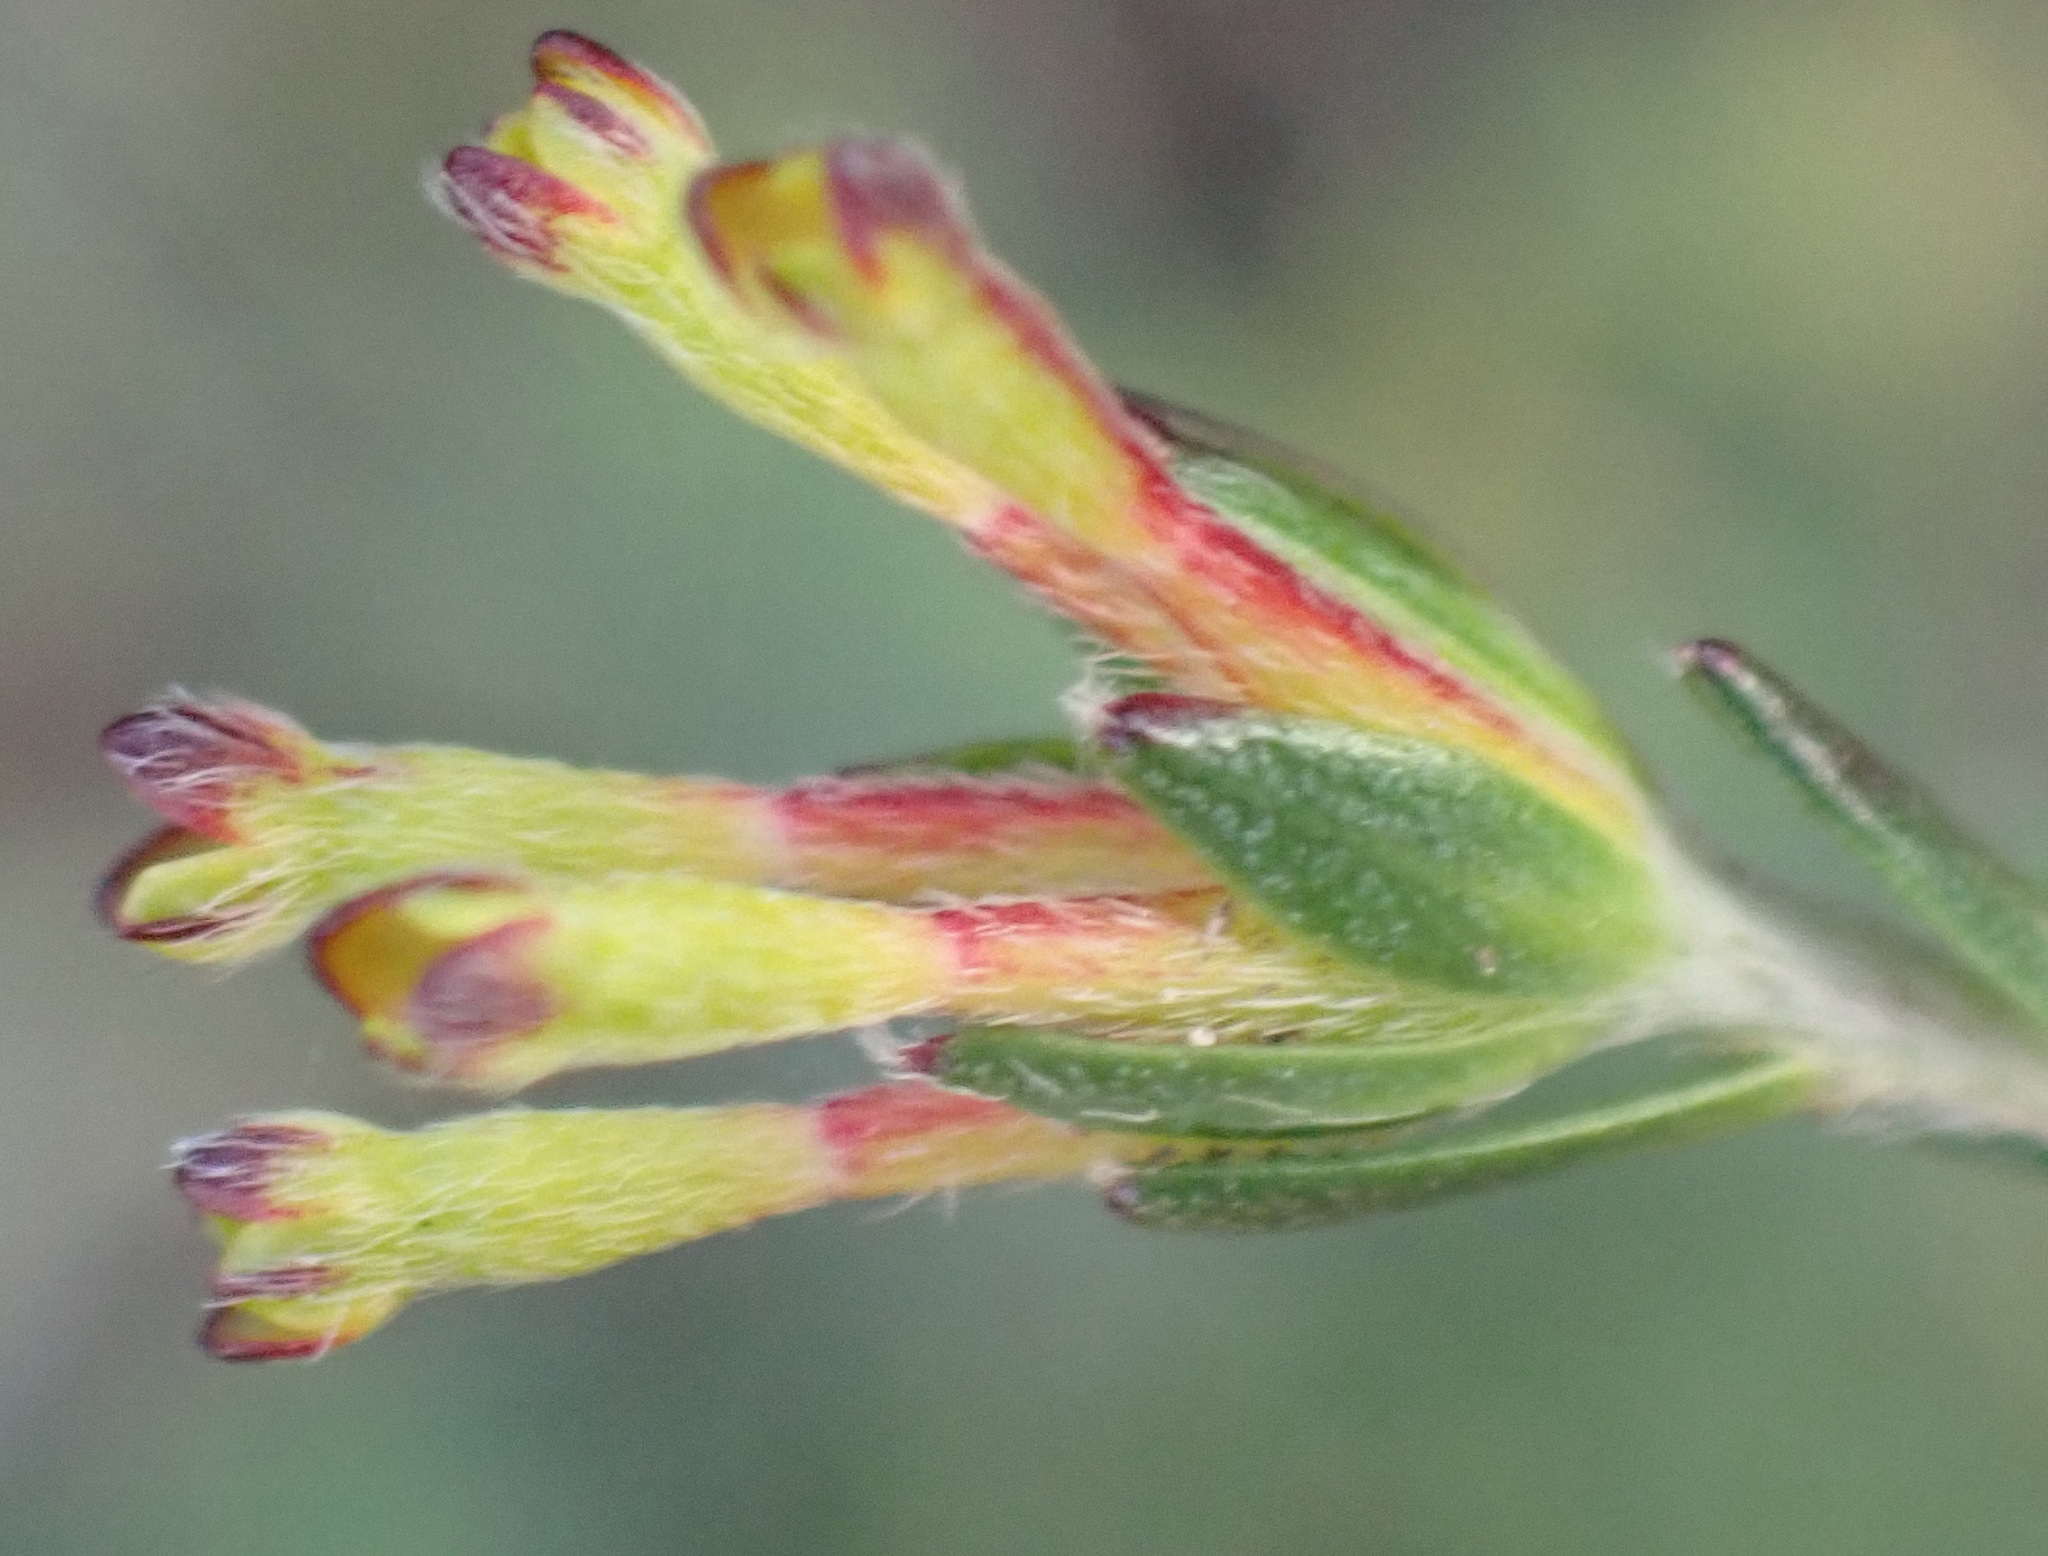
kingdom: Plantae
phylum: Tracheophyta
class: Magnoliopsida
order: Malvales
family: Thymelaeaceae
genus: Gnidia
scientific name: Gnidia laxa
